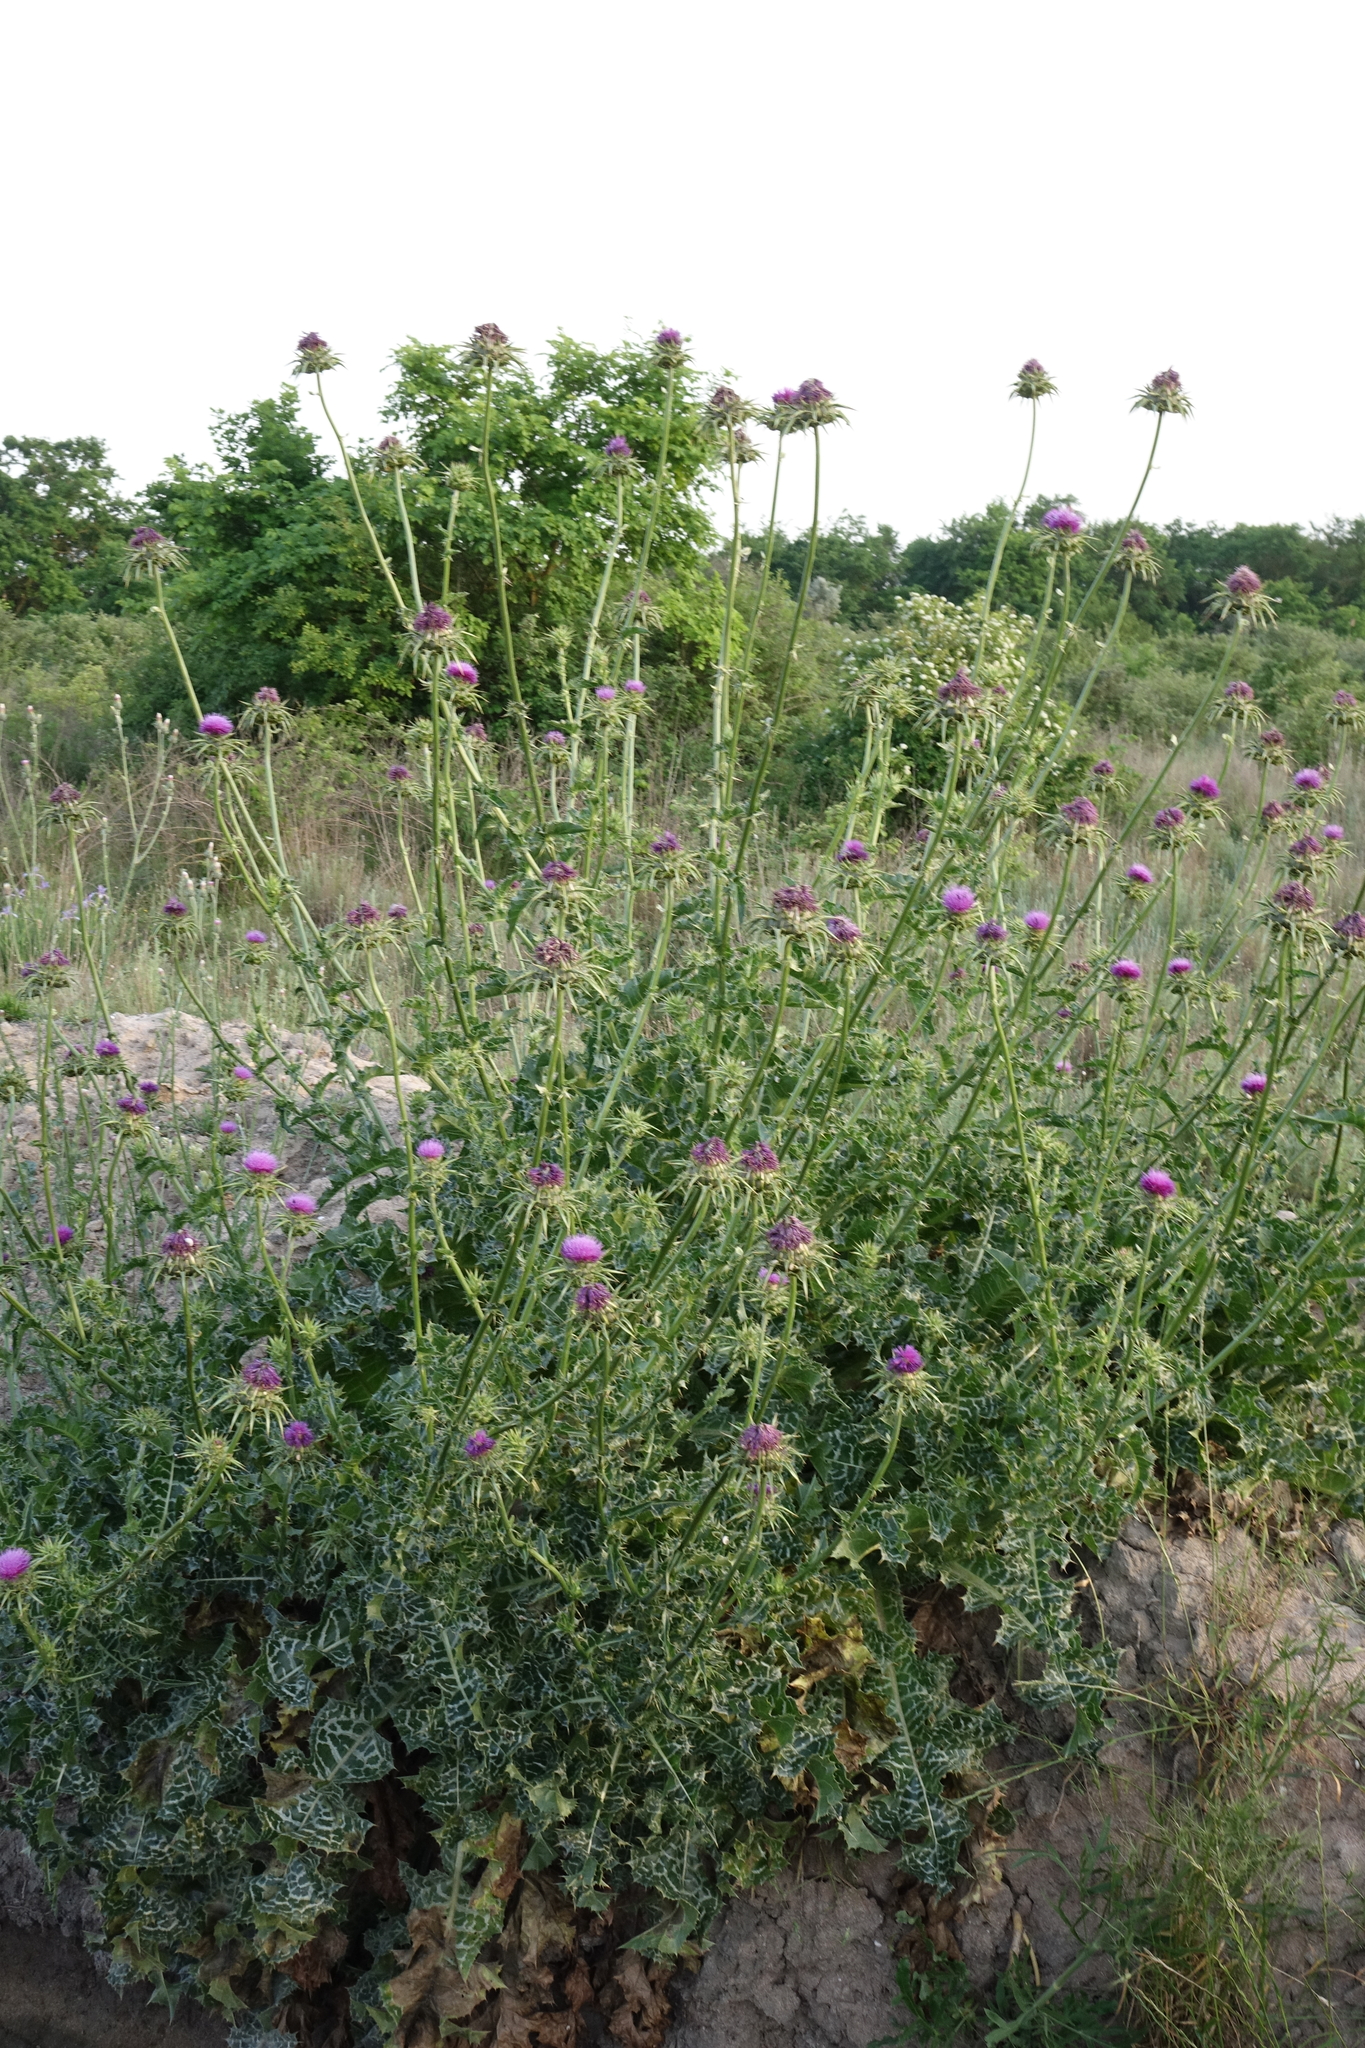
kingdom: Plantae
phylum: Tracheophyta
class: Magnoliopsida
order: Asterales
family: Asteraceae
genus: Silybum
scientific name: Silybum marianum
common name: Milk thistle
